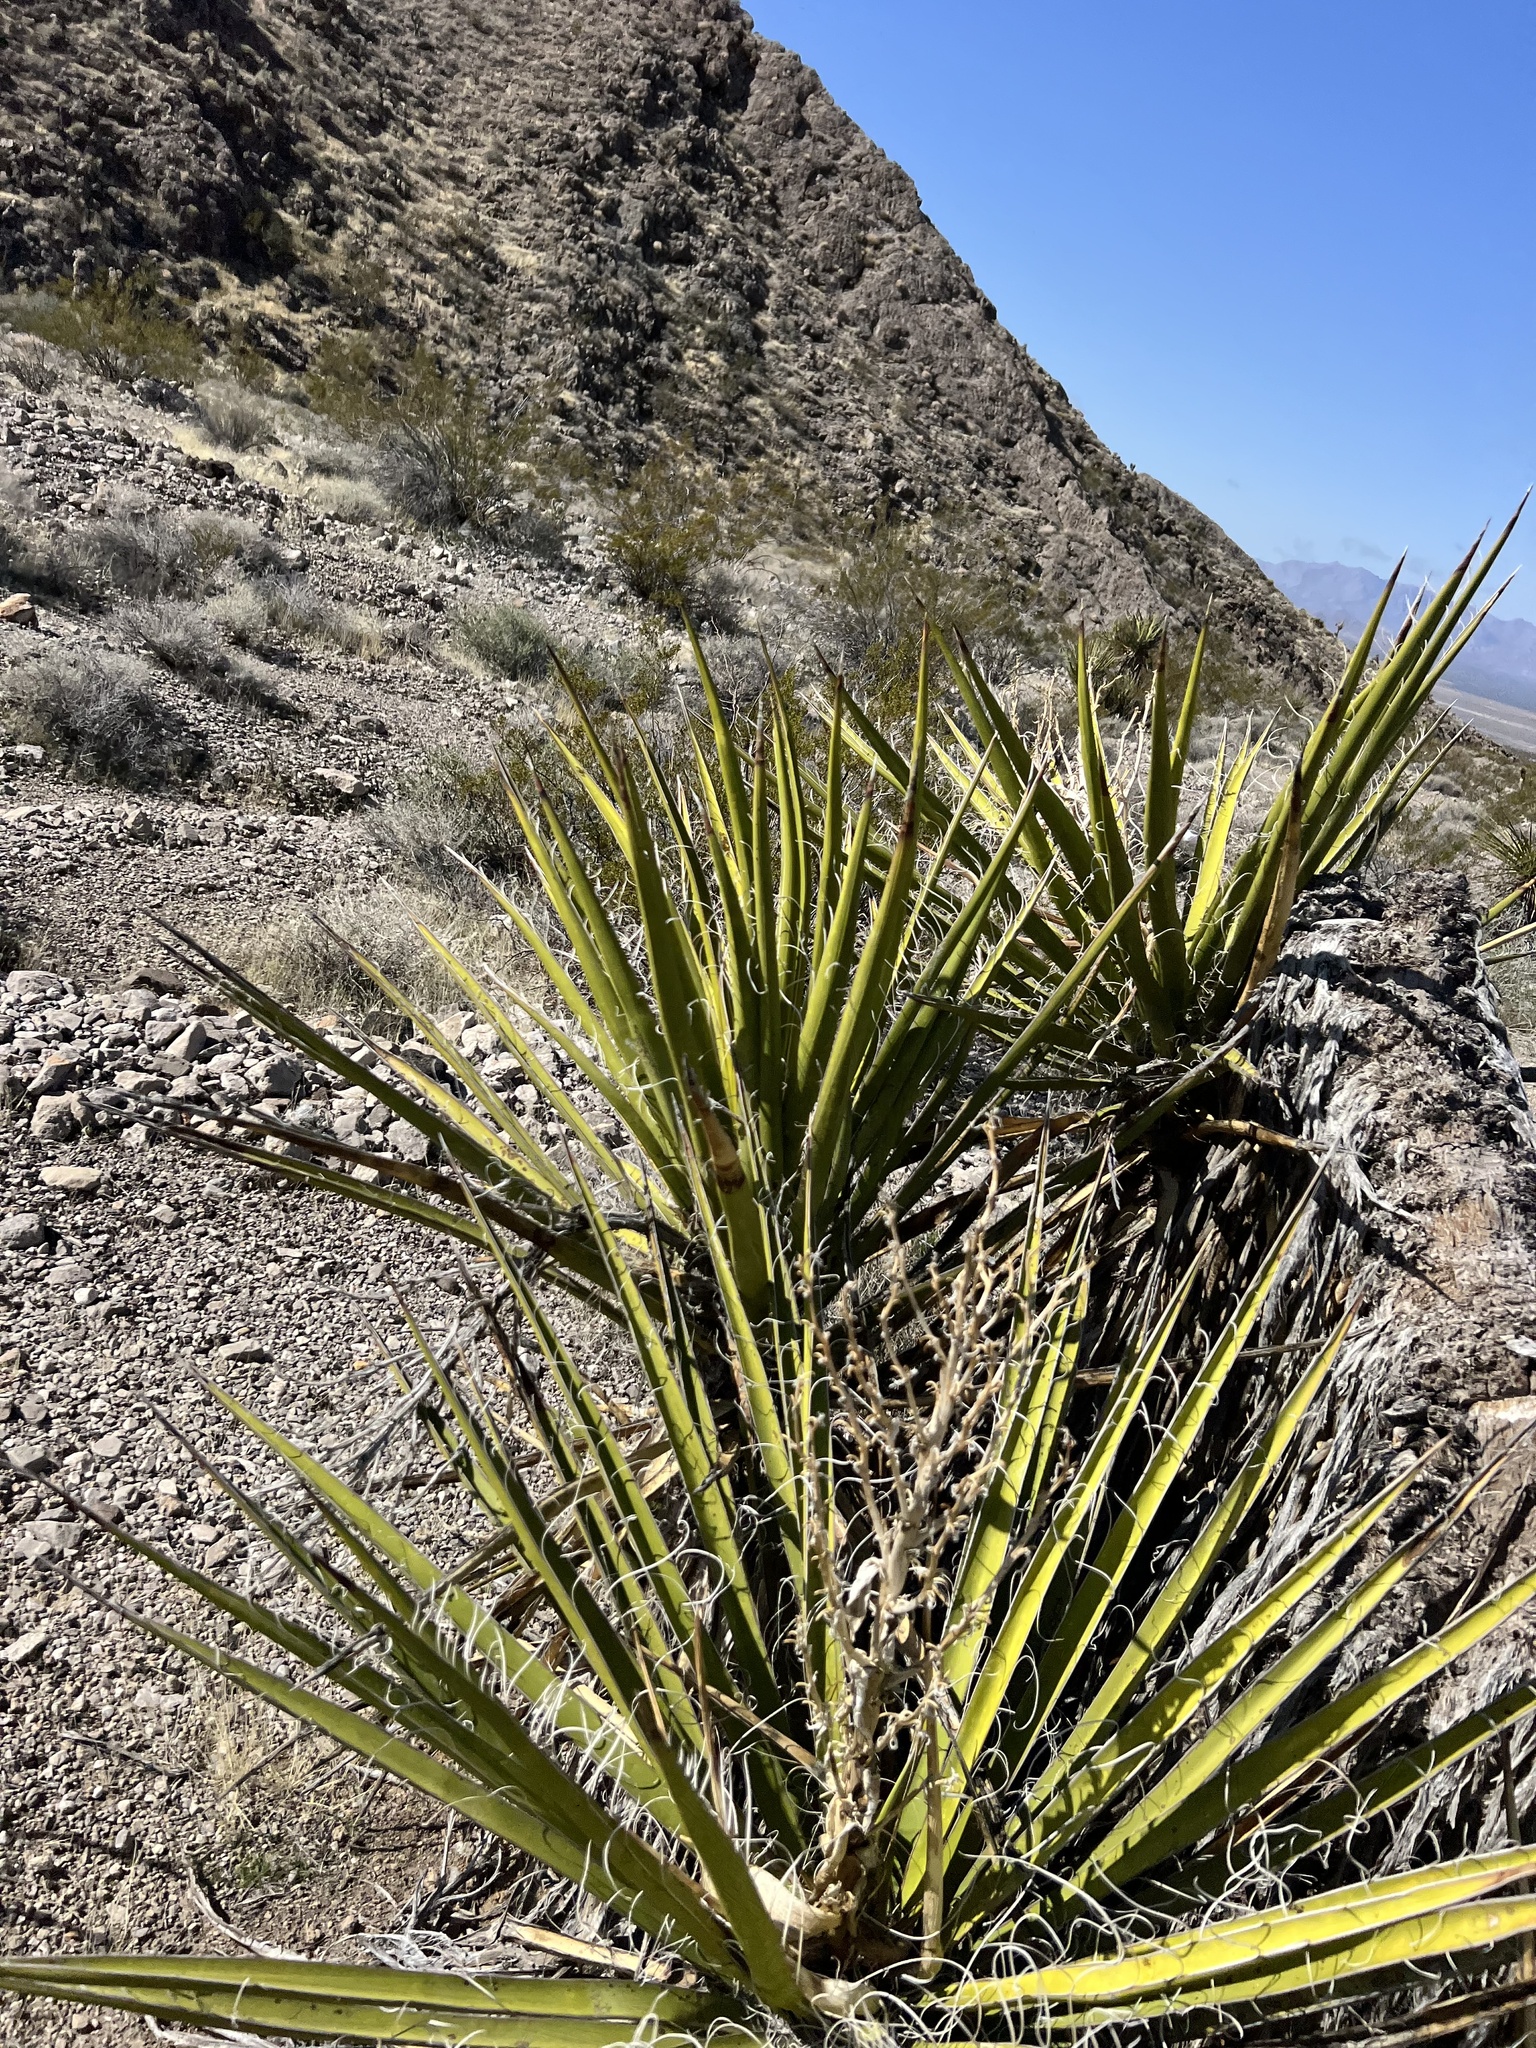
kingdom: Plantae
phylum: Tracheophyta
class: Liliopsida
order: Asparagales
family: Asparagaceae
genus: Yucca
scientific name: Yucca schidigera
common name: Mojave yucca
